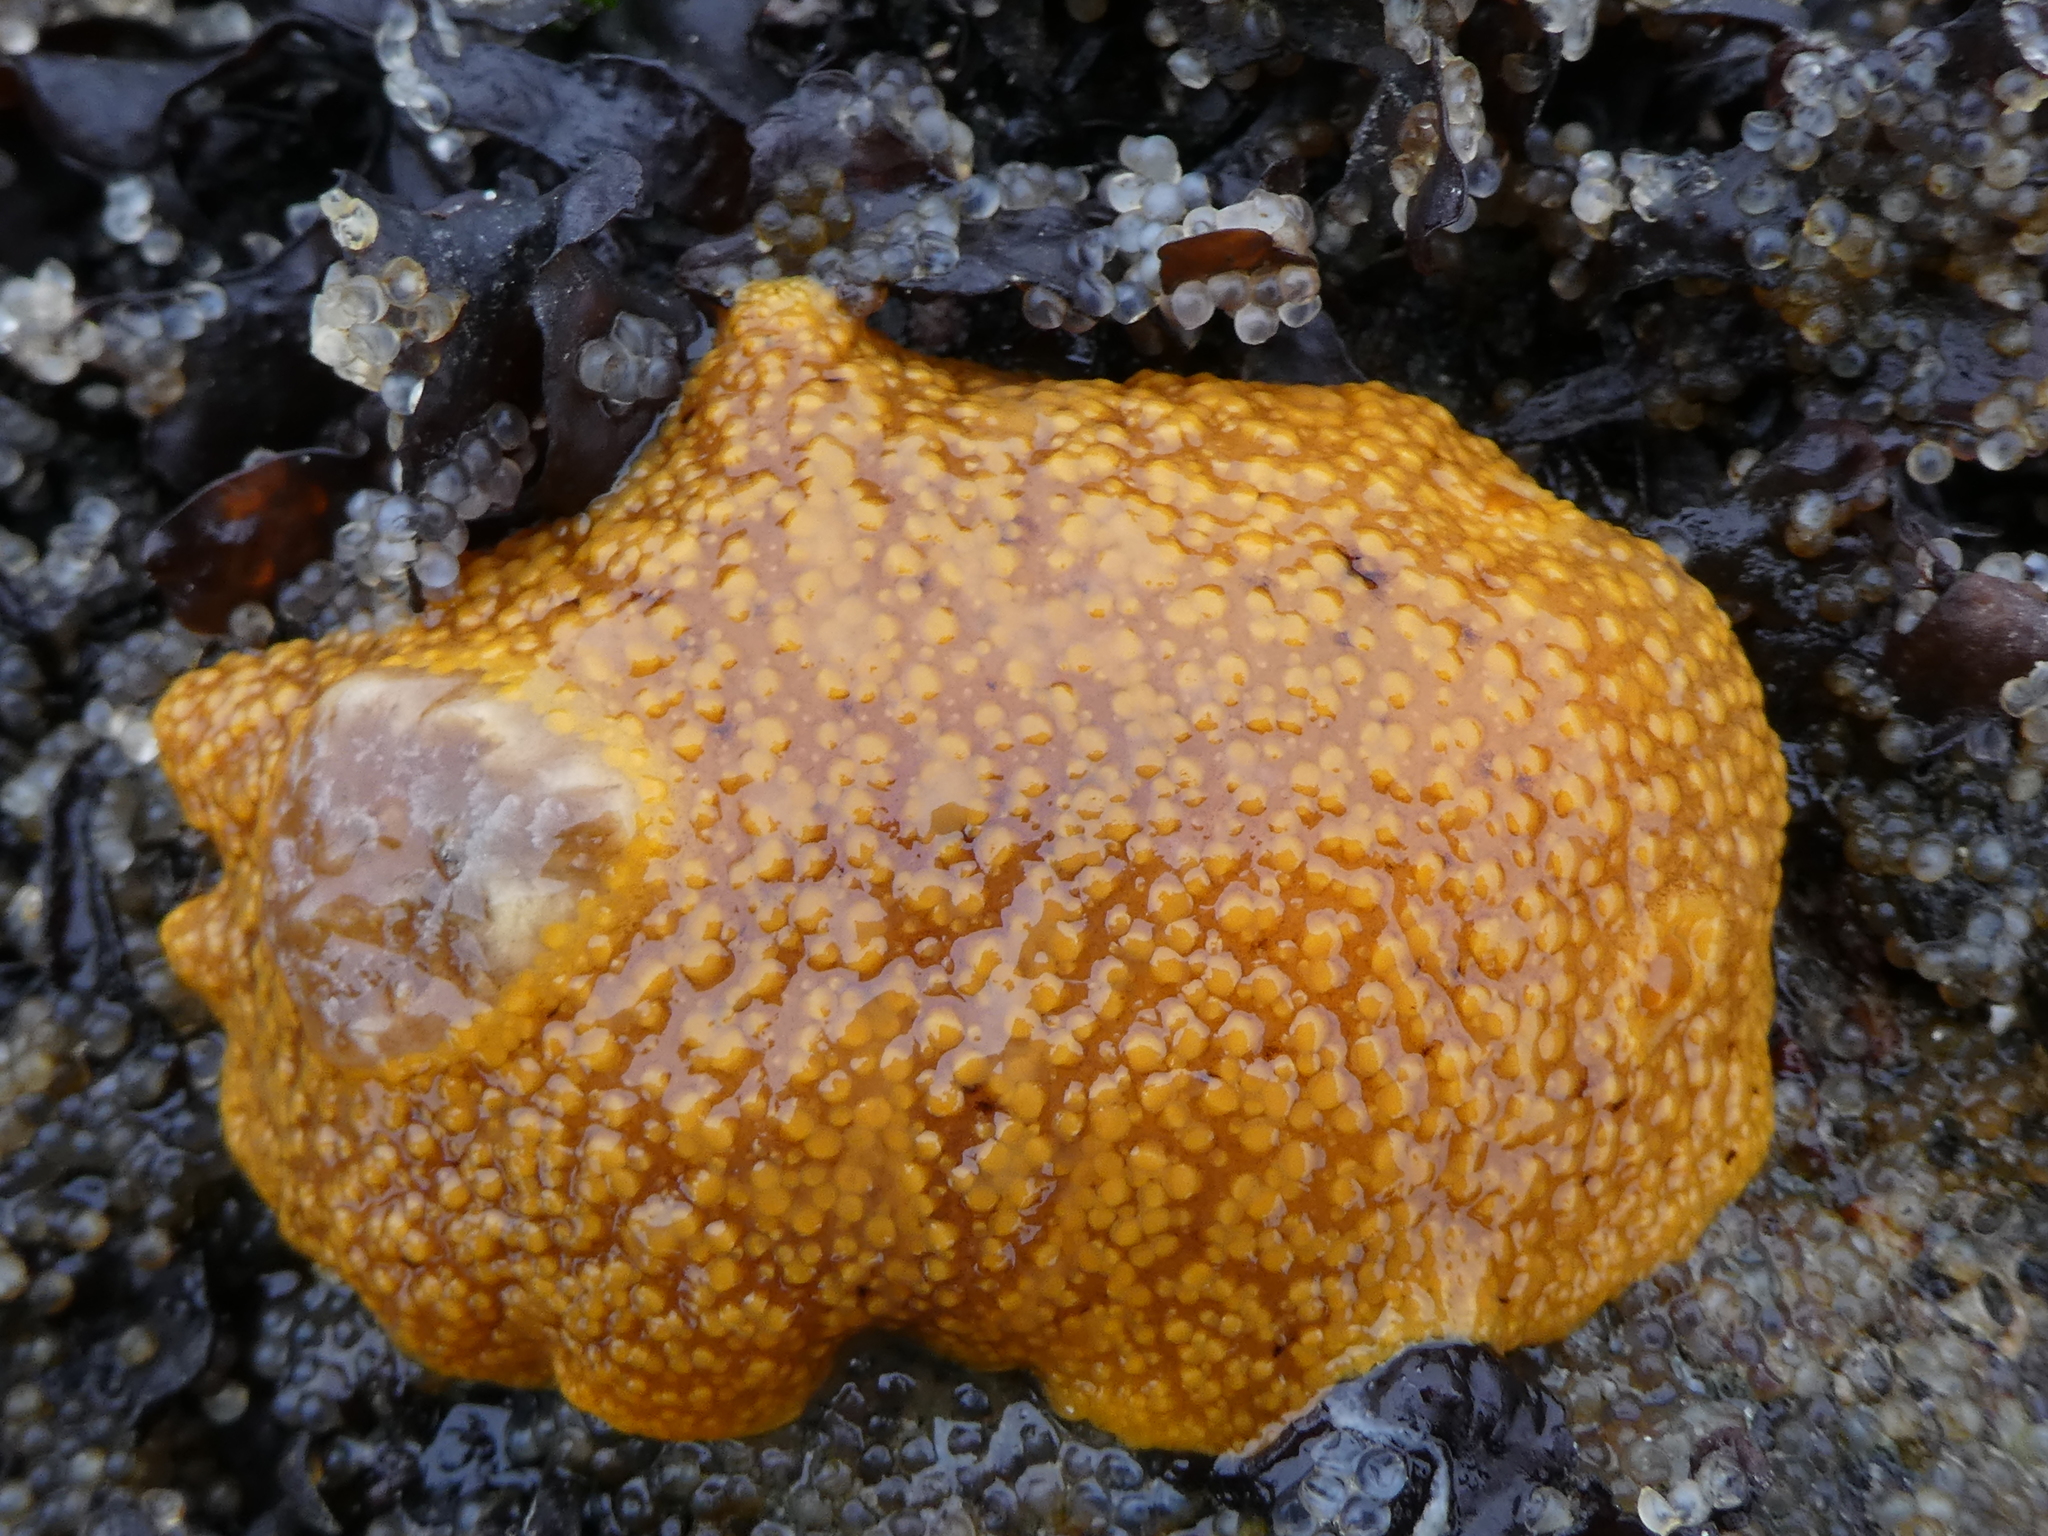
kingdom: Animalia
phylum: Mollusca
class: Gastropoda
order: Nudibranchia
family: Discodorididae
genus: Peltodoris
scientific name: Peltodoris nobilis
